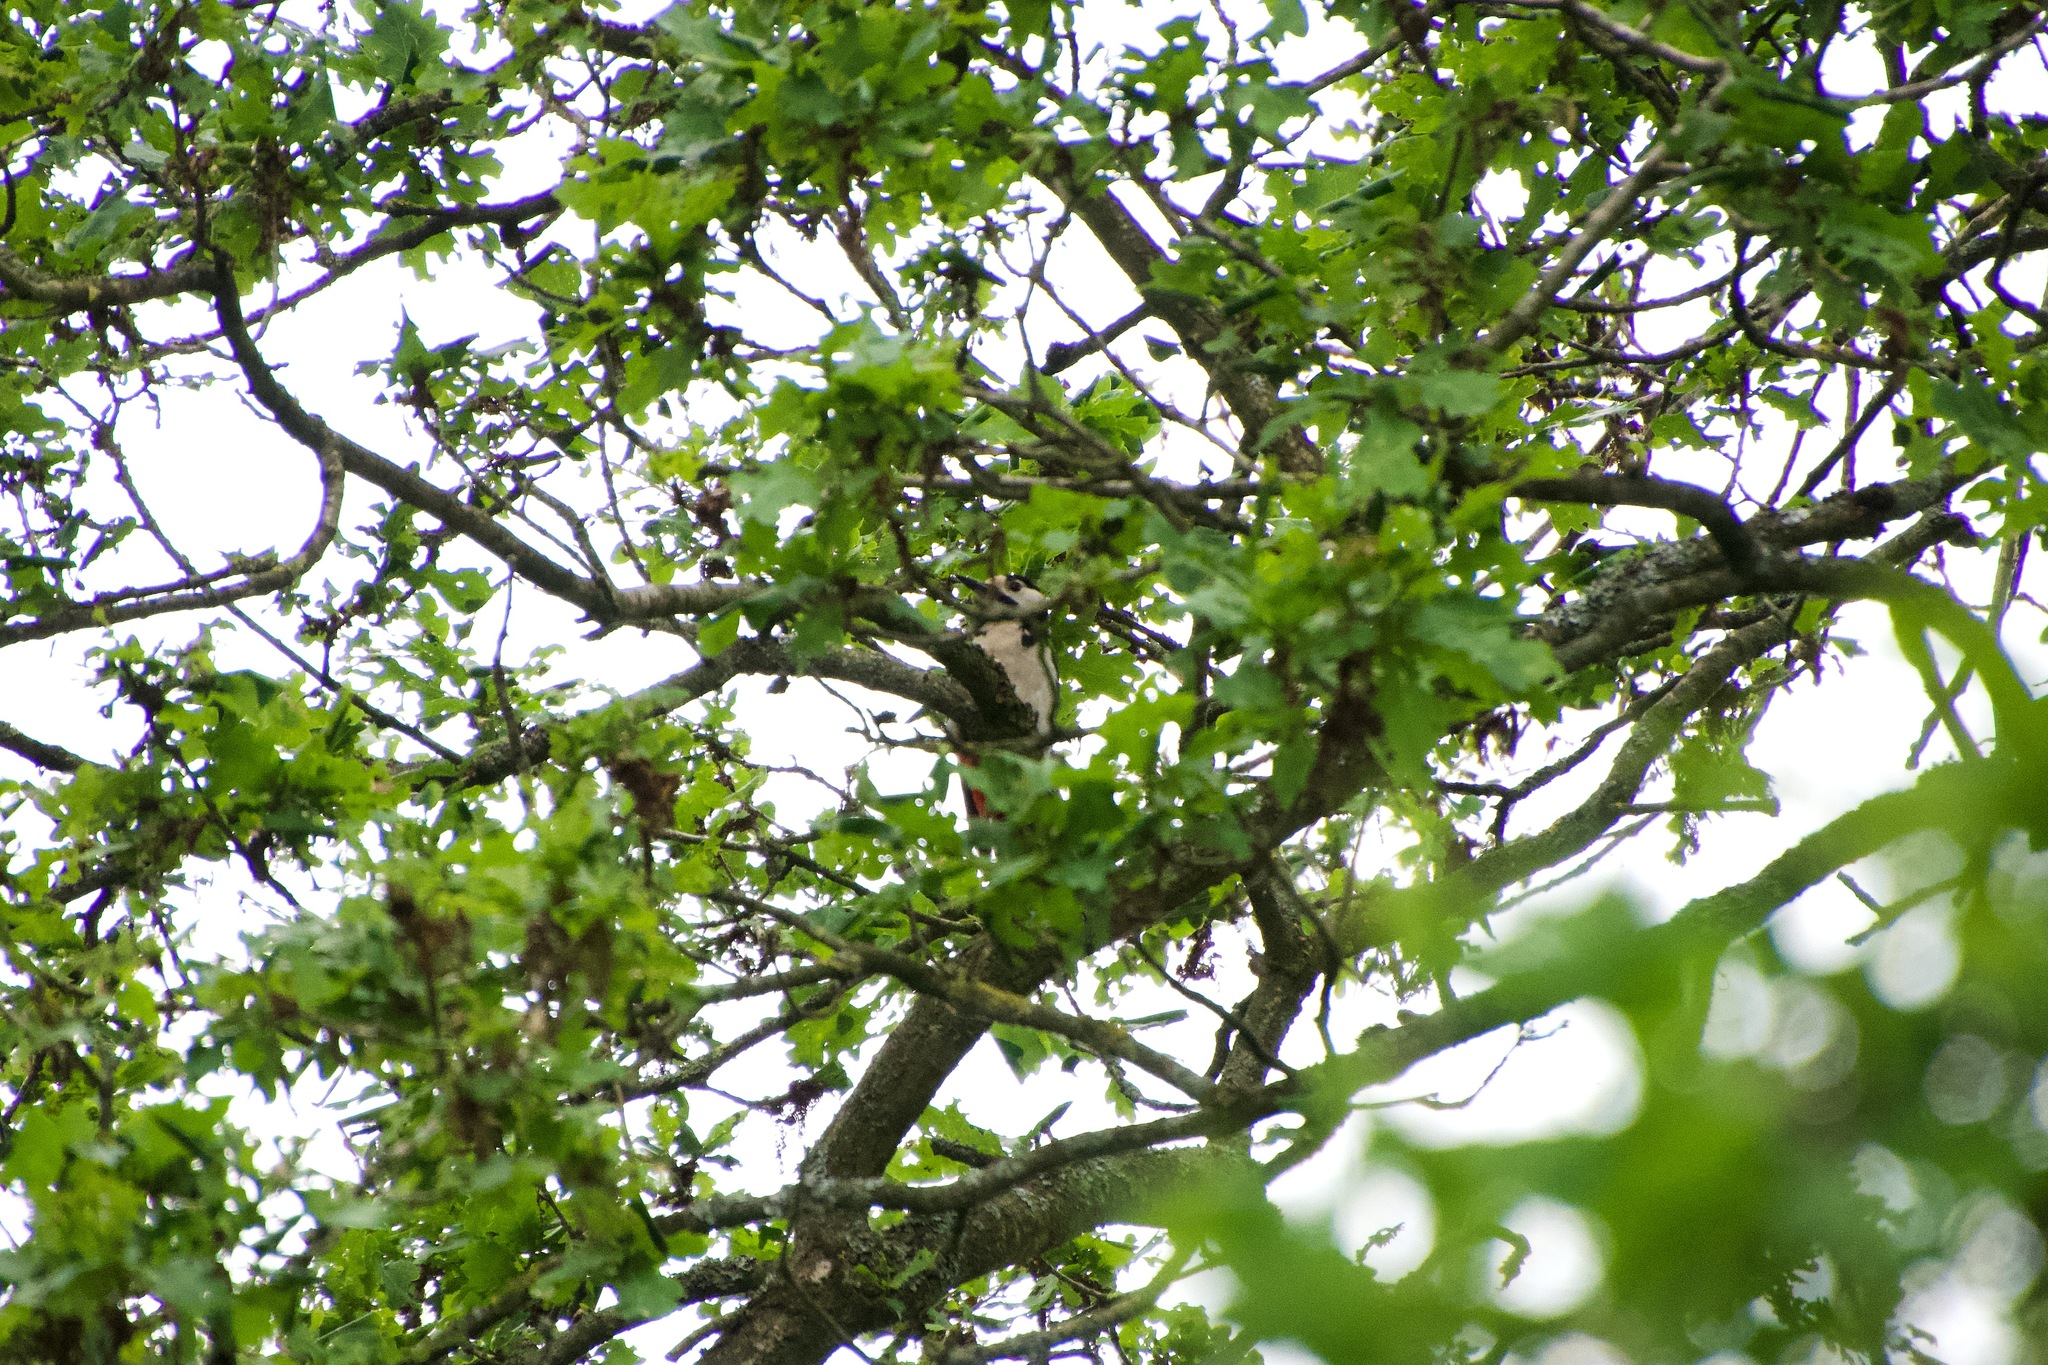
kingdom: Animalia
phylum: Chordata
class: Aves
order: Piciformes
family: Picidae
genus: Dendrocopos
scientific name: Dendrocopos major
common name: Great spotted woodpecker
